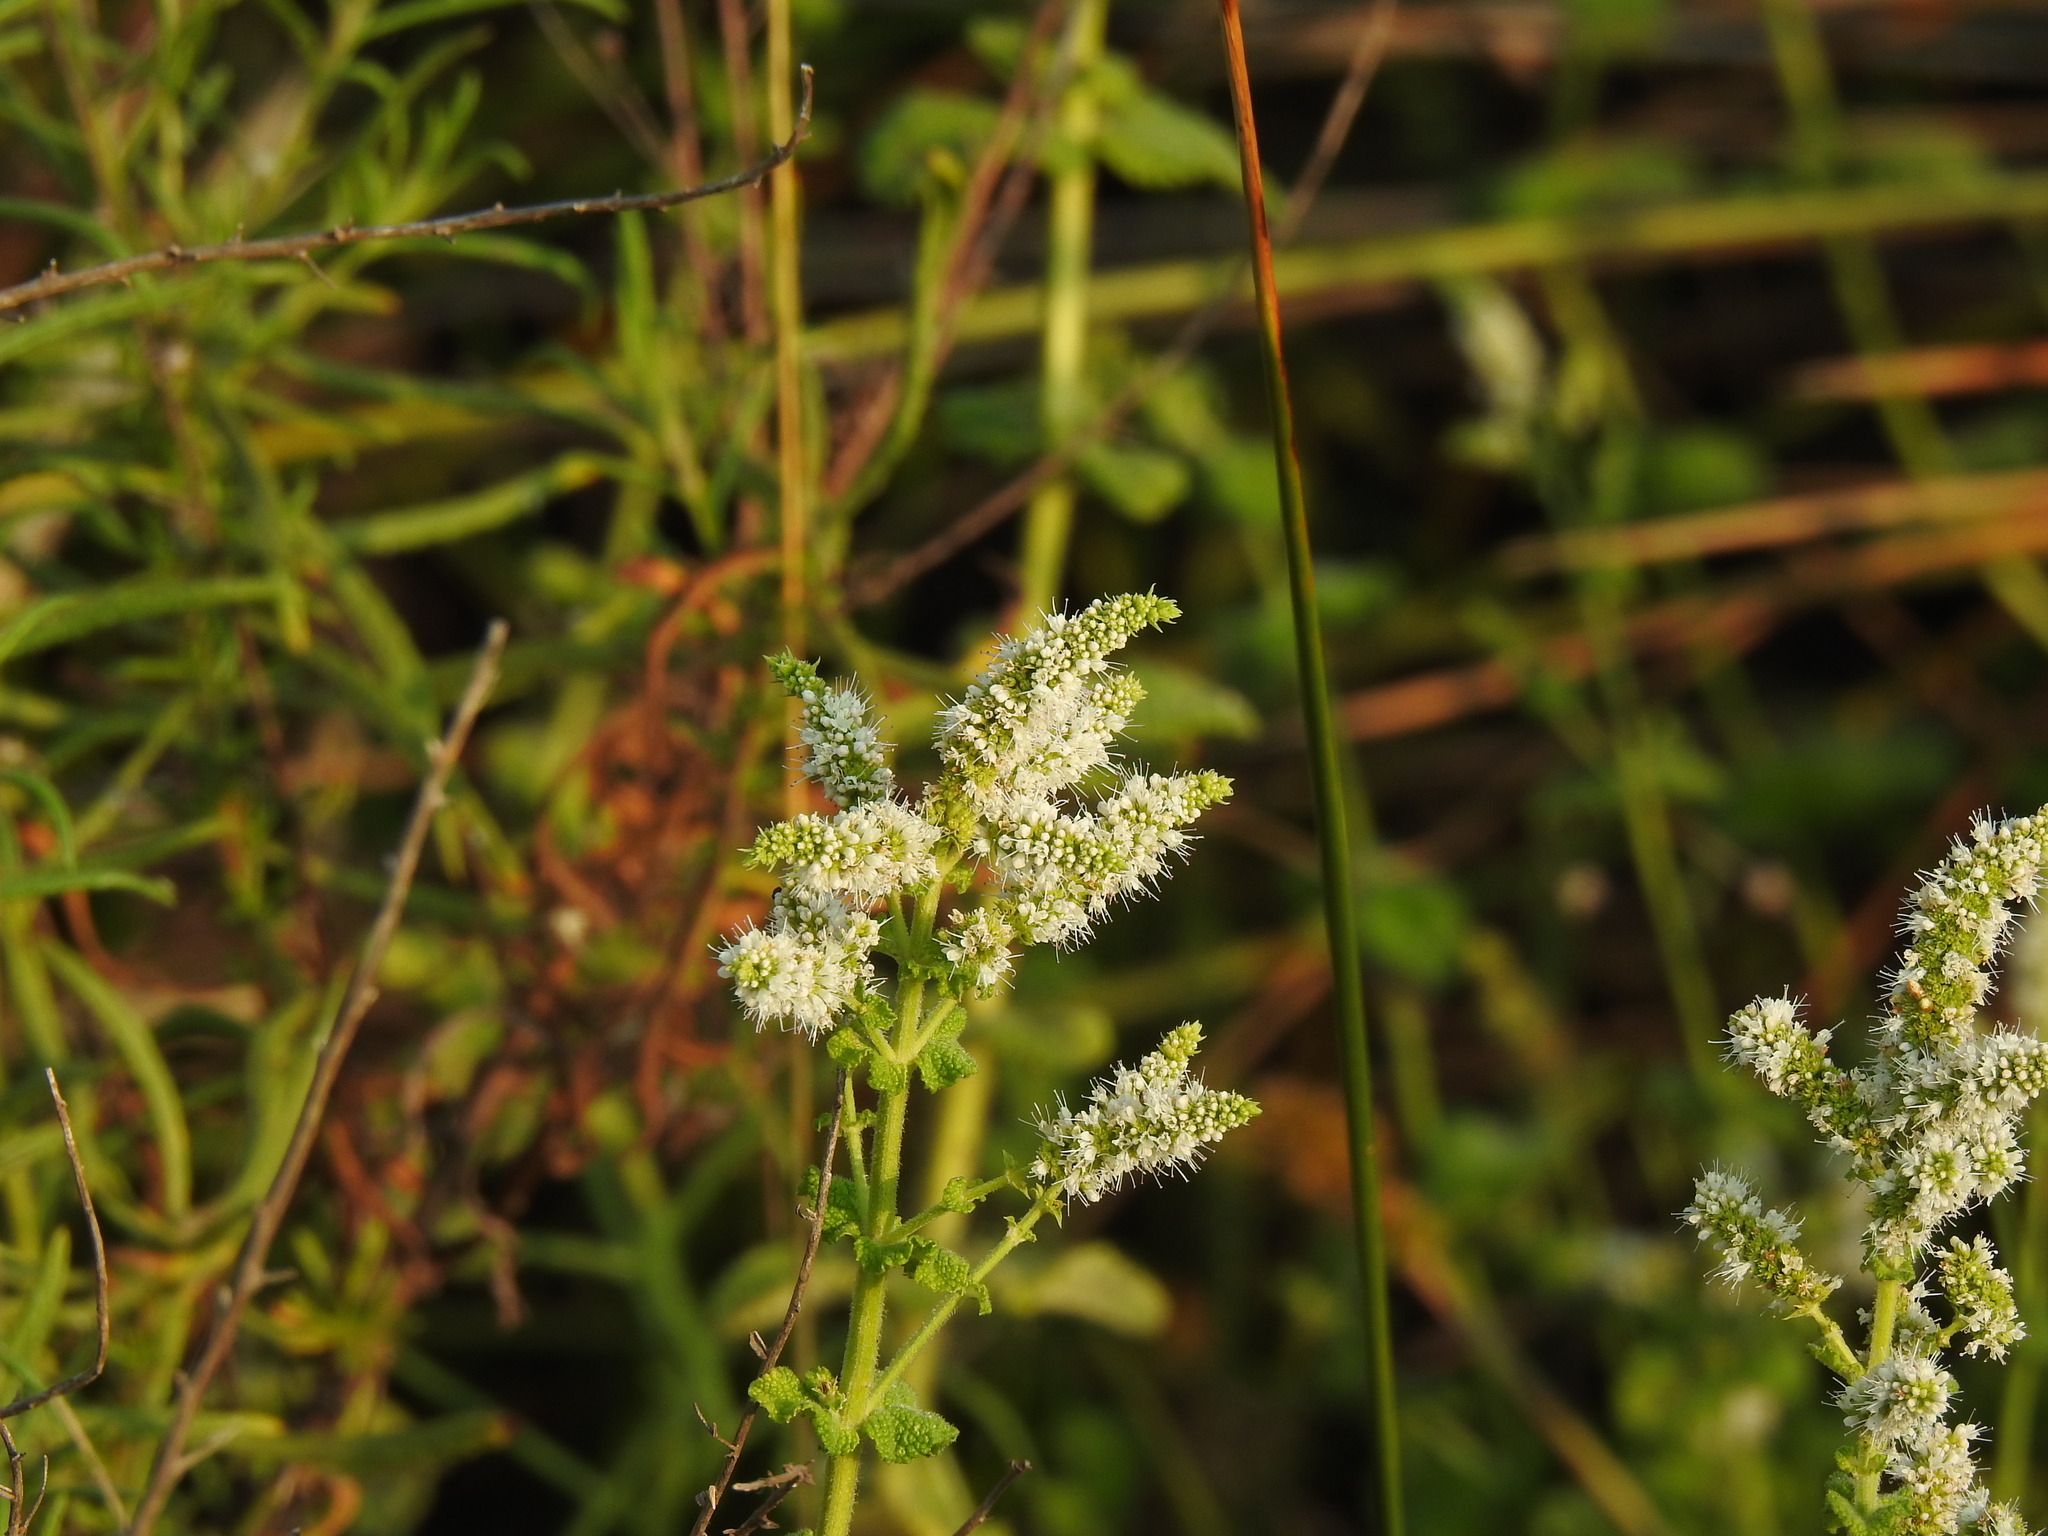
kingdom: Plantae
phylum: Tracheophyta
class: Magnoliopsida
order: Lamiales
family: Lamiaceae
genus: Mentha
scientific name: Mentha suaveolens
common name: Apple mint
